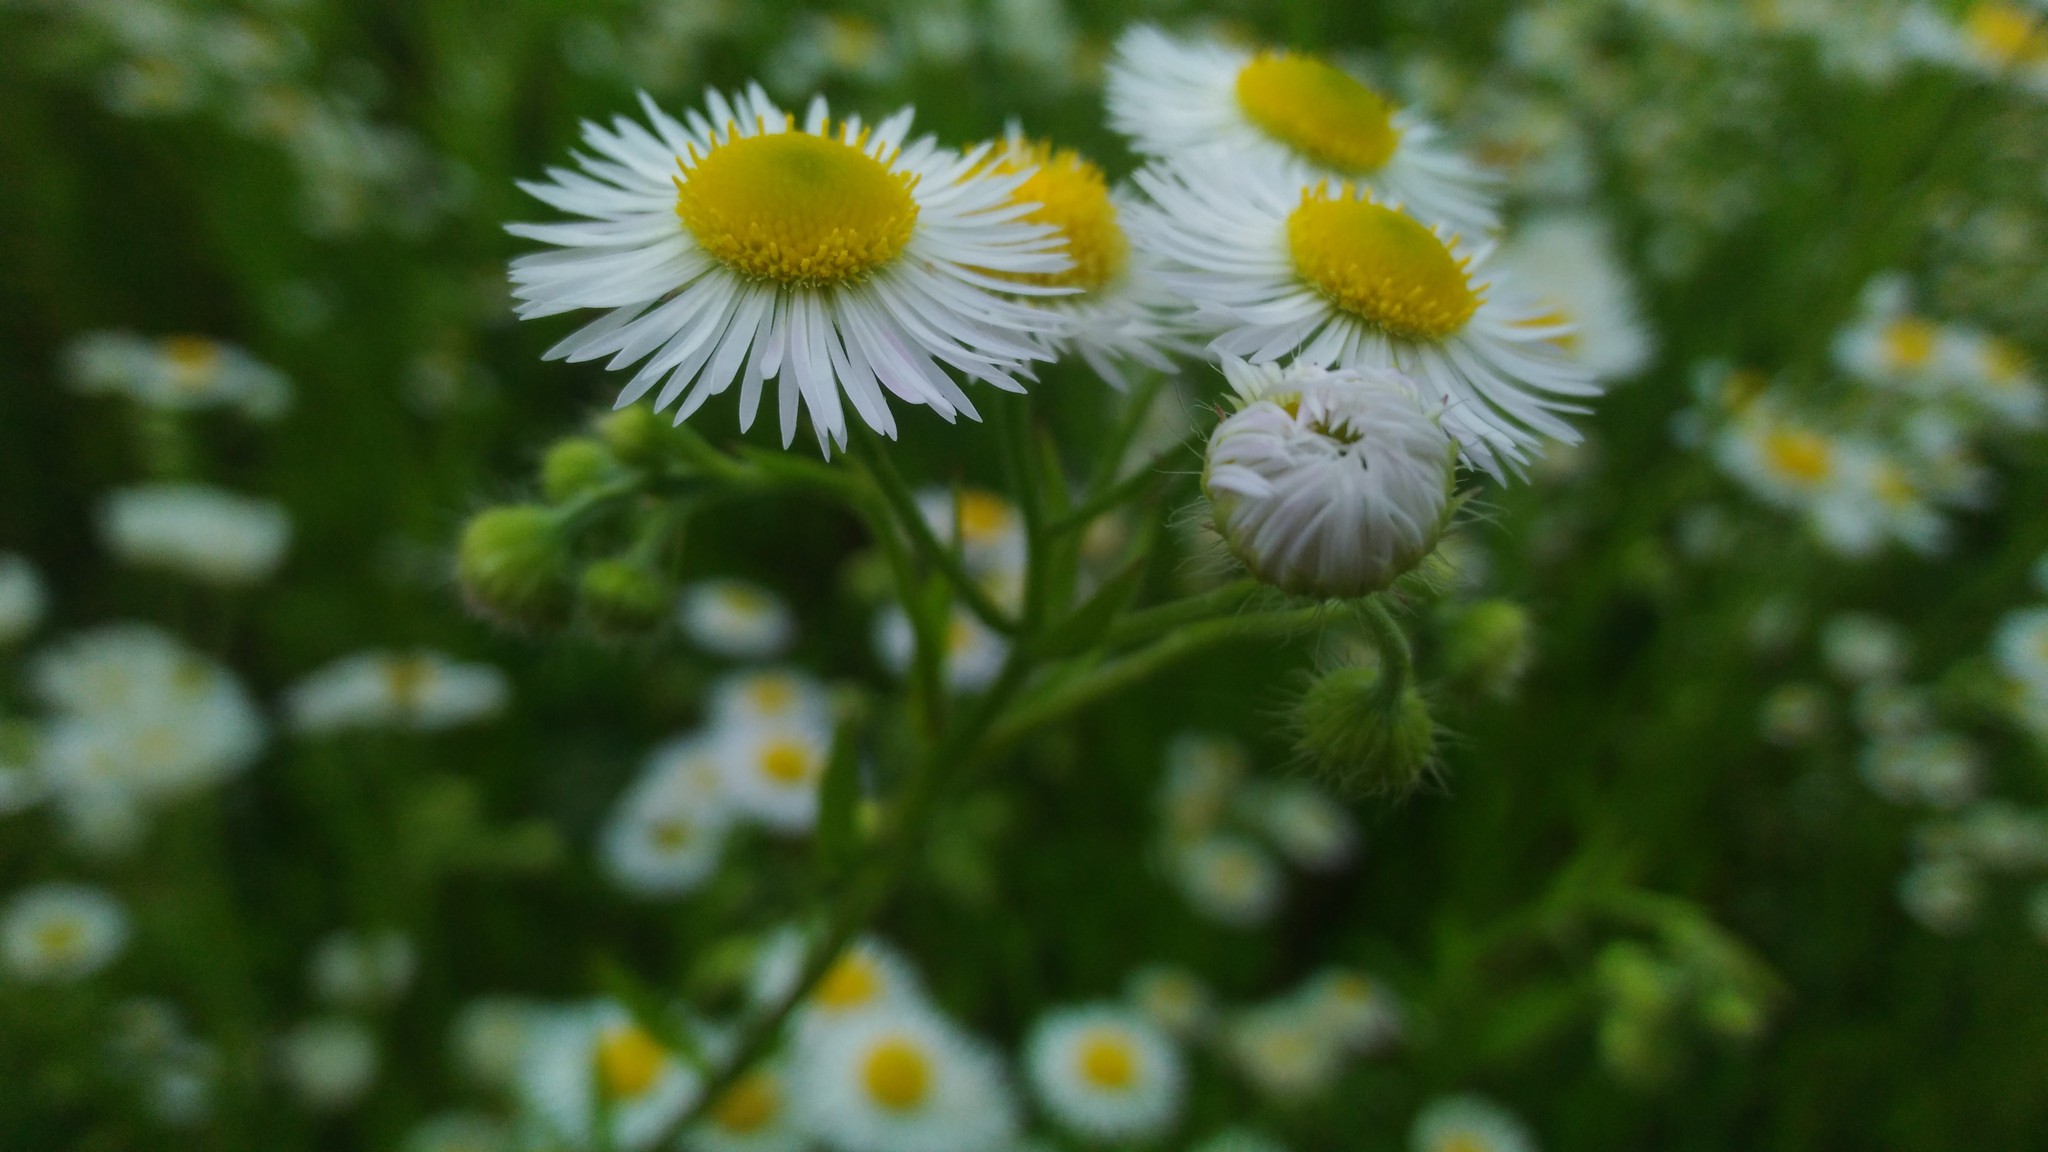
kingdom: Plantae
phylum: Tracheophyta
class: Magnoliopsida
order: Asterales
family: Asteraceae
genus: Erigeron
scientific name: Erigeron annuus
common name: Tall fleabane
